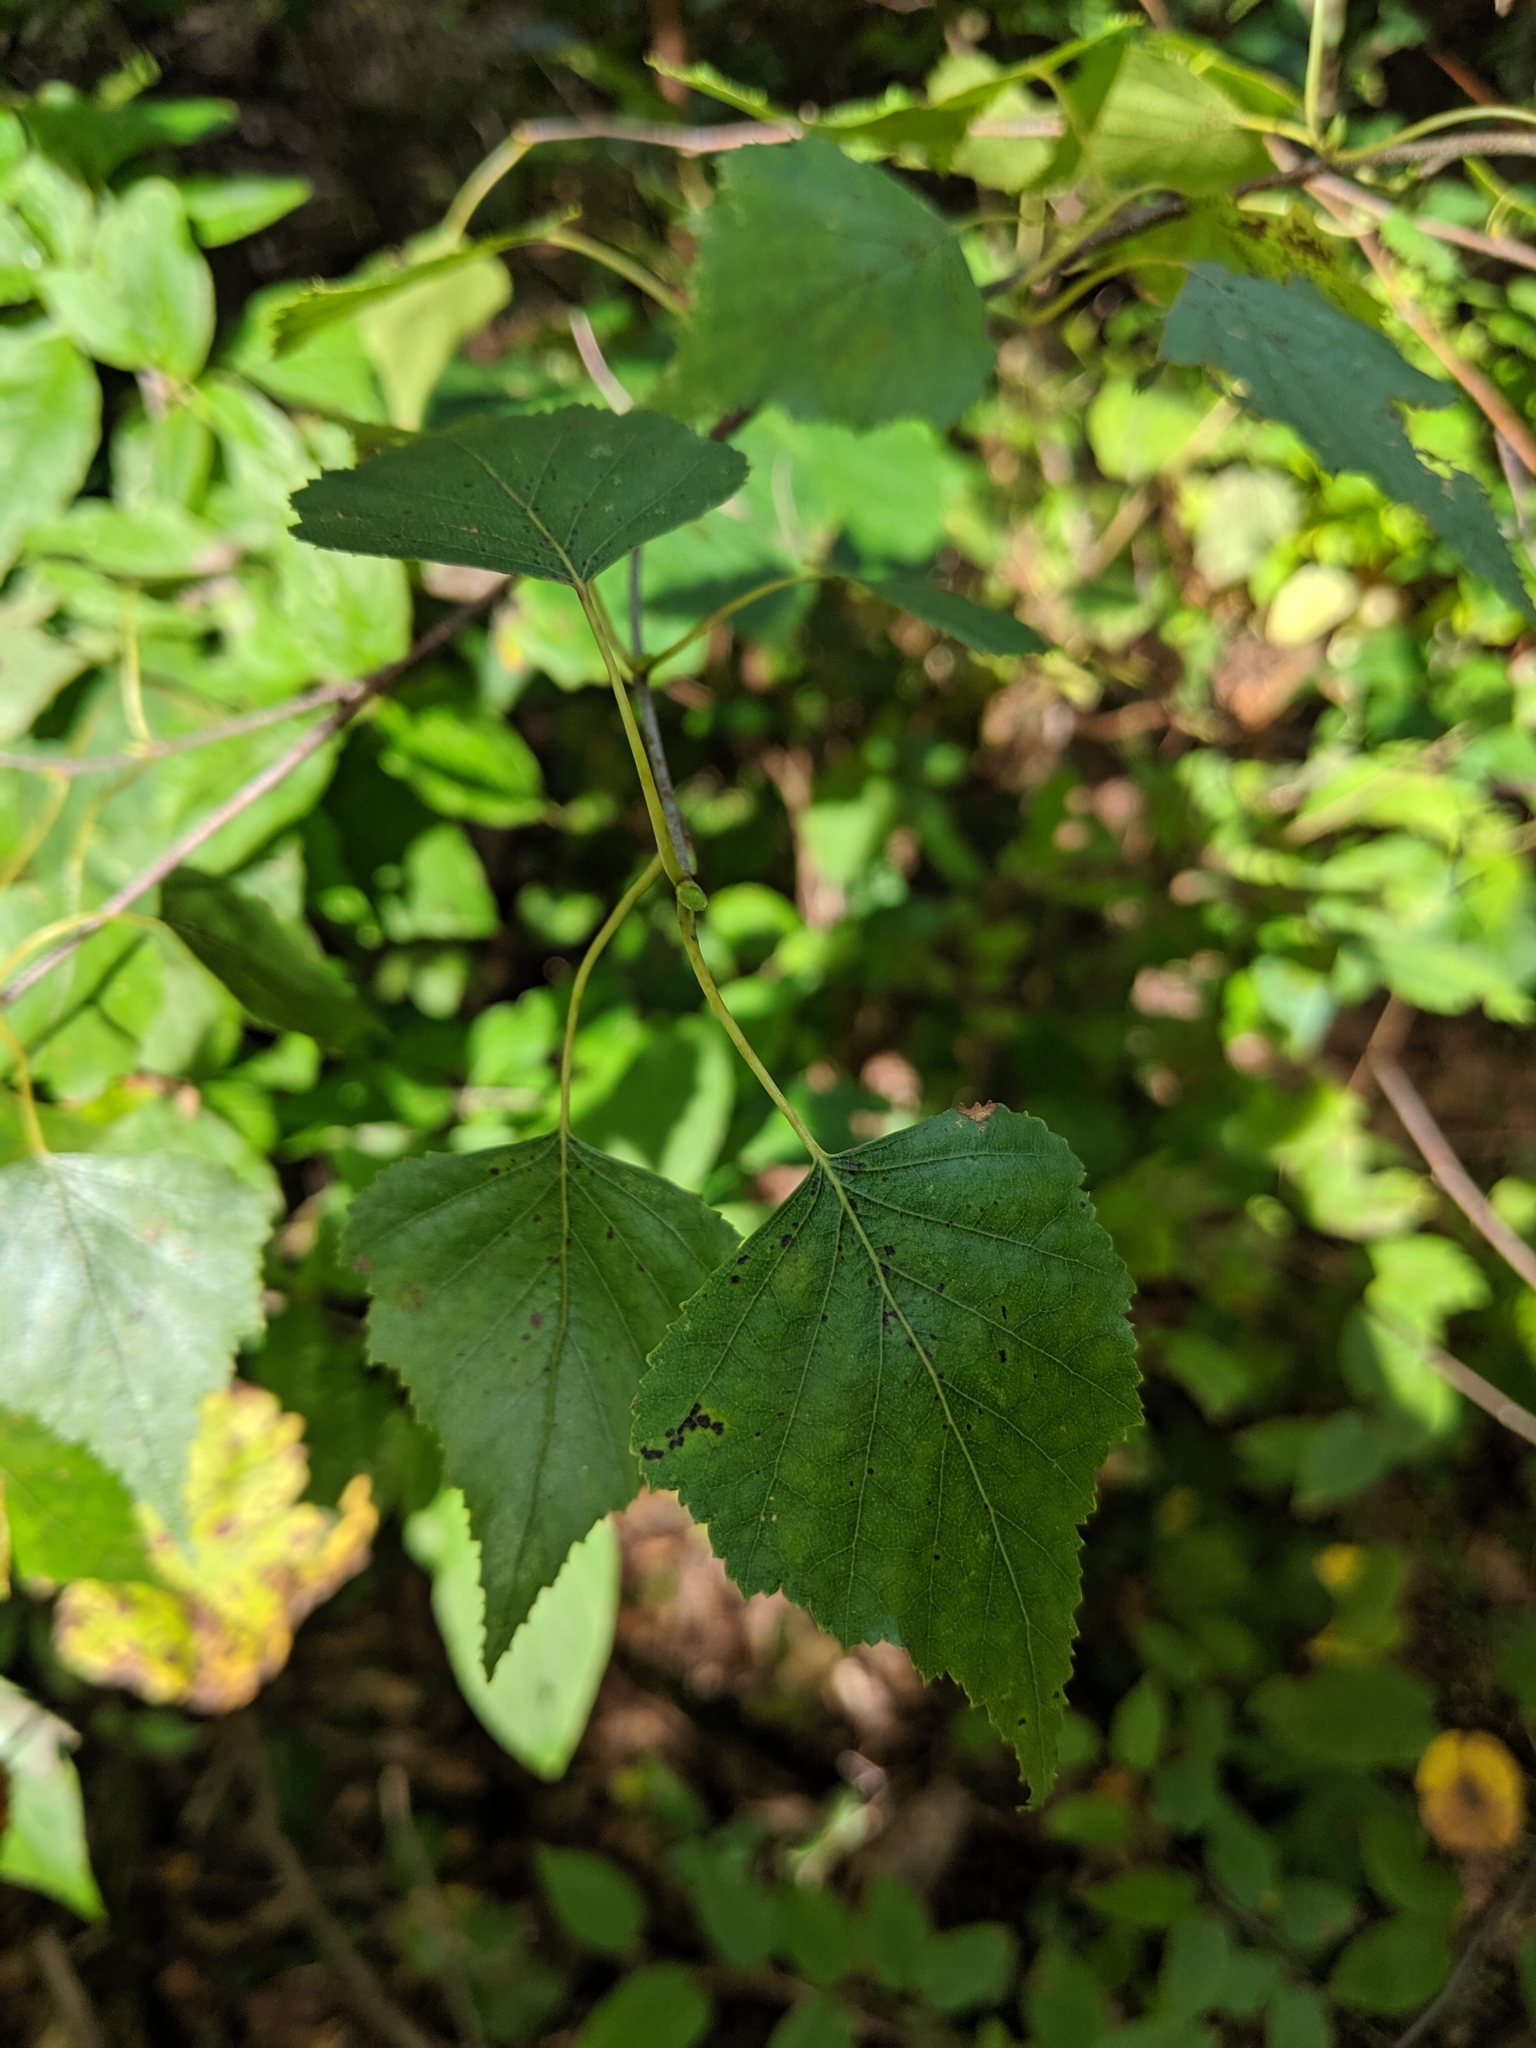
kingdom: Plantae
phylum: Tracheophyta
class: Magnoliopsida
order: Fagales
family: Betulaceae
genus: Betula
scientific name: Betula populifolia
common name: Fire birch
